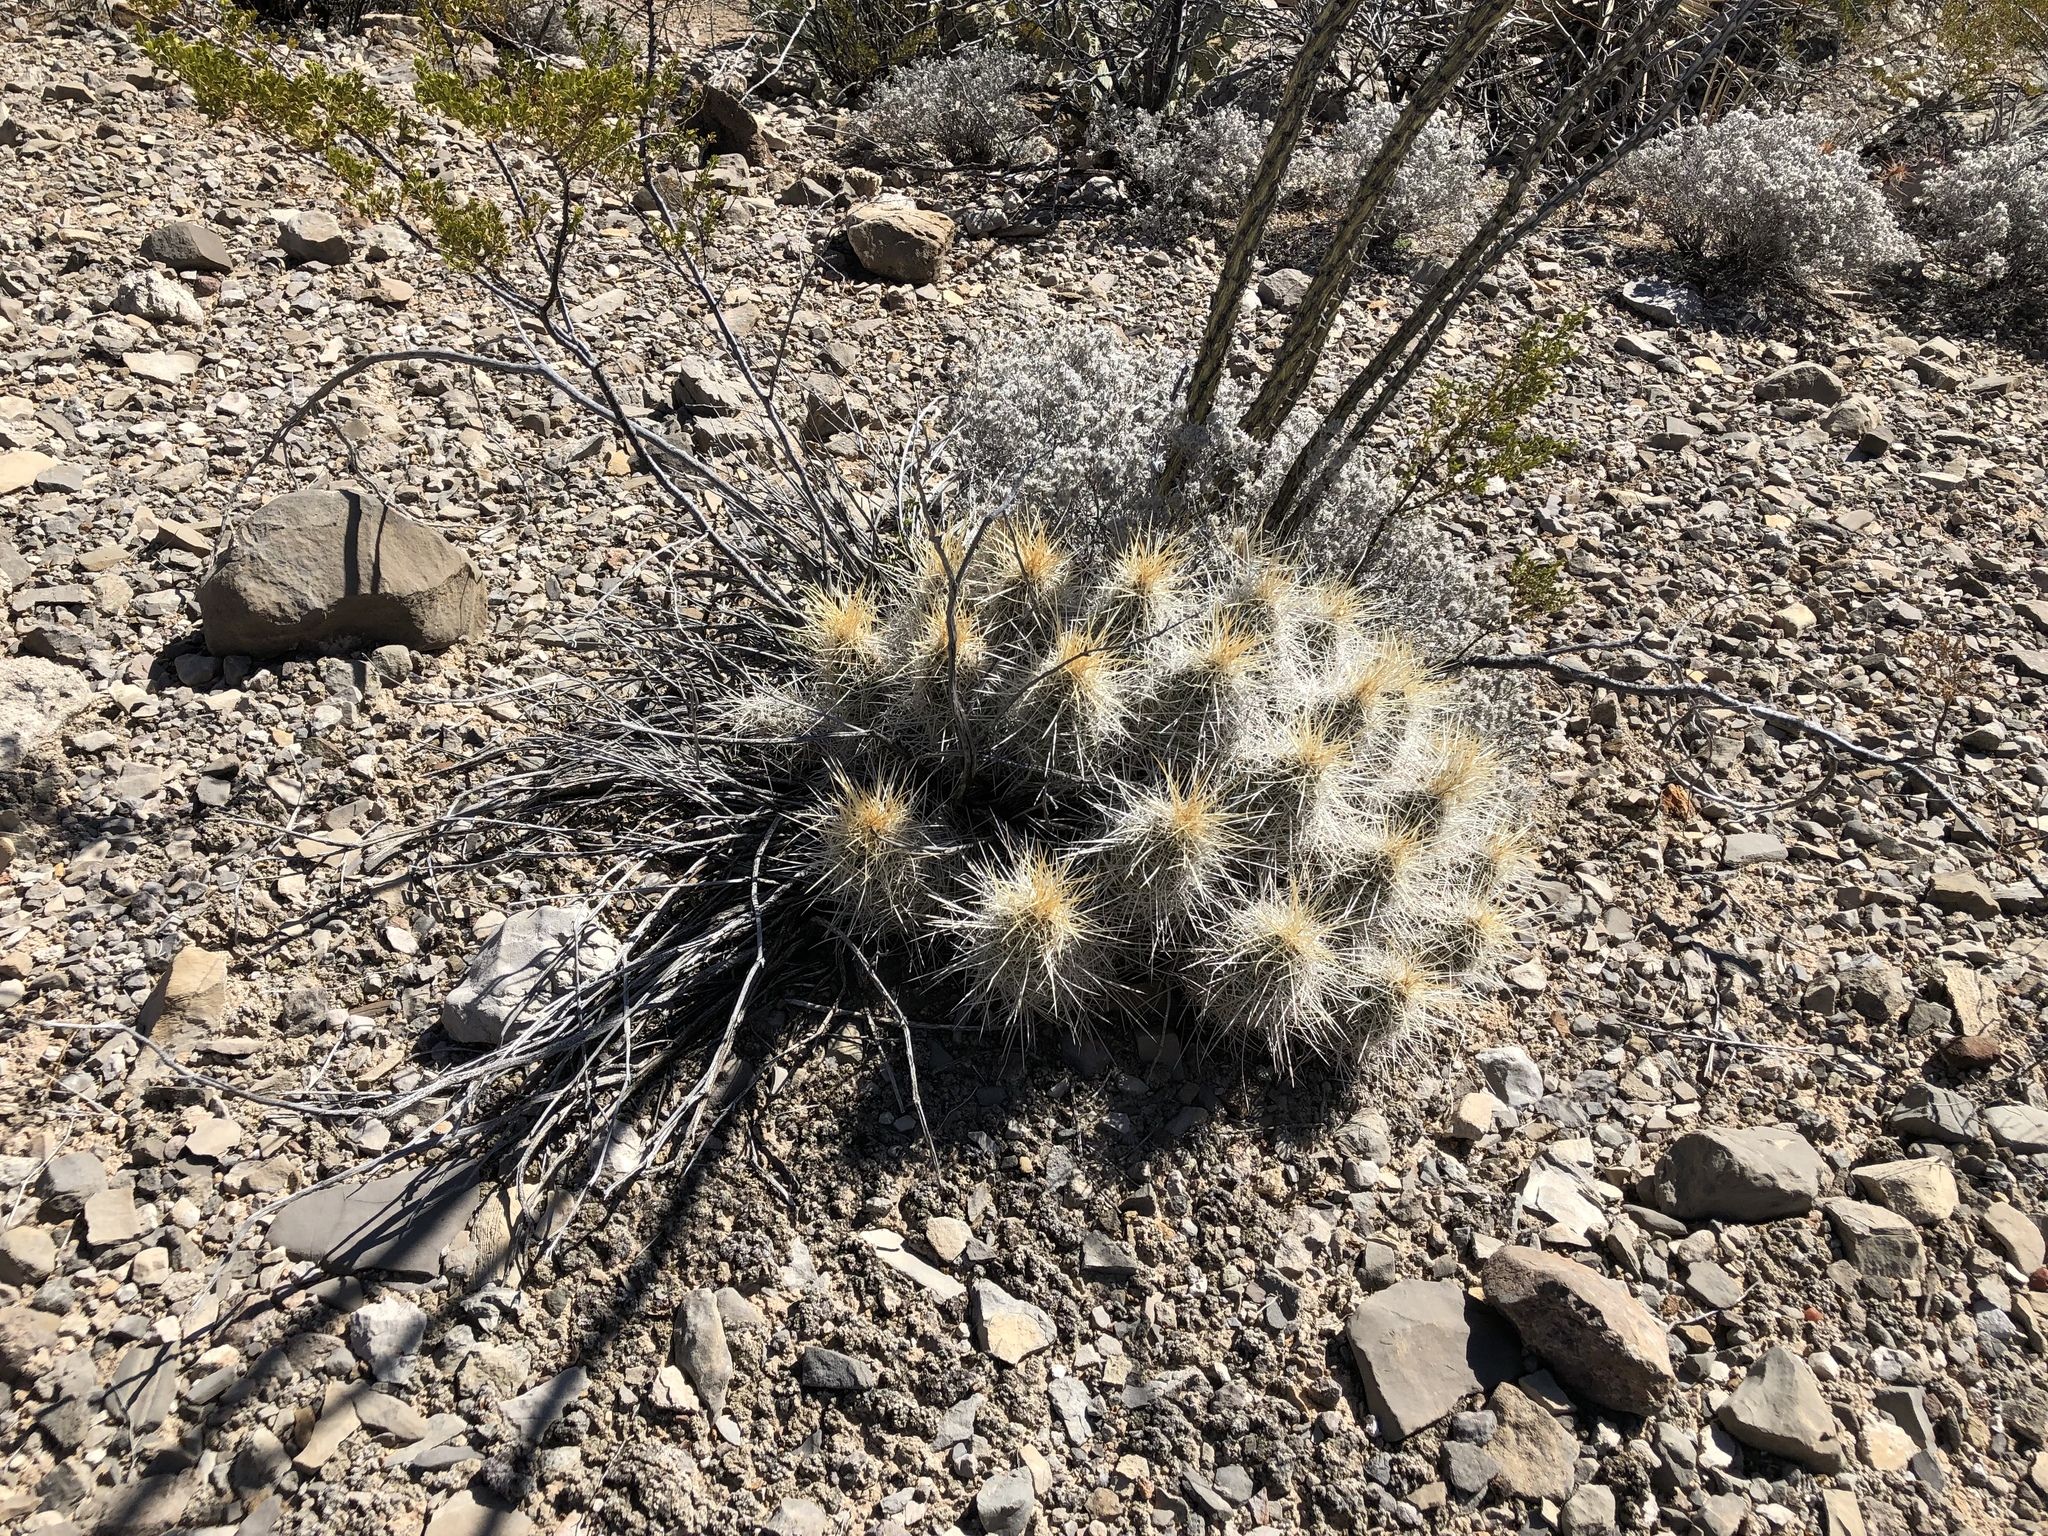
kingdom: Plantae
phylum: Tracheophyta
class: Magnoliopsida
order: Caryophyllales
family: Cactaceae
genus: Echinocereus
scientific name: Echinocereus stramineus
